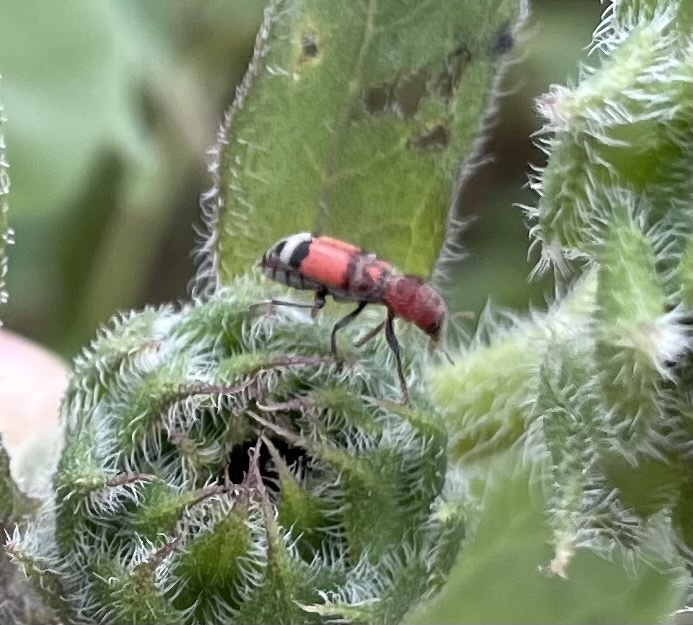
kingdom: Animalia
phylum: Arthropoda
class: Insecta
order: Coleoptera
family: Cleridae
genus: Enoclerus
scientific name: Enoclerus coccineus
